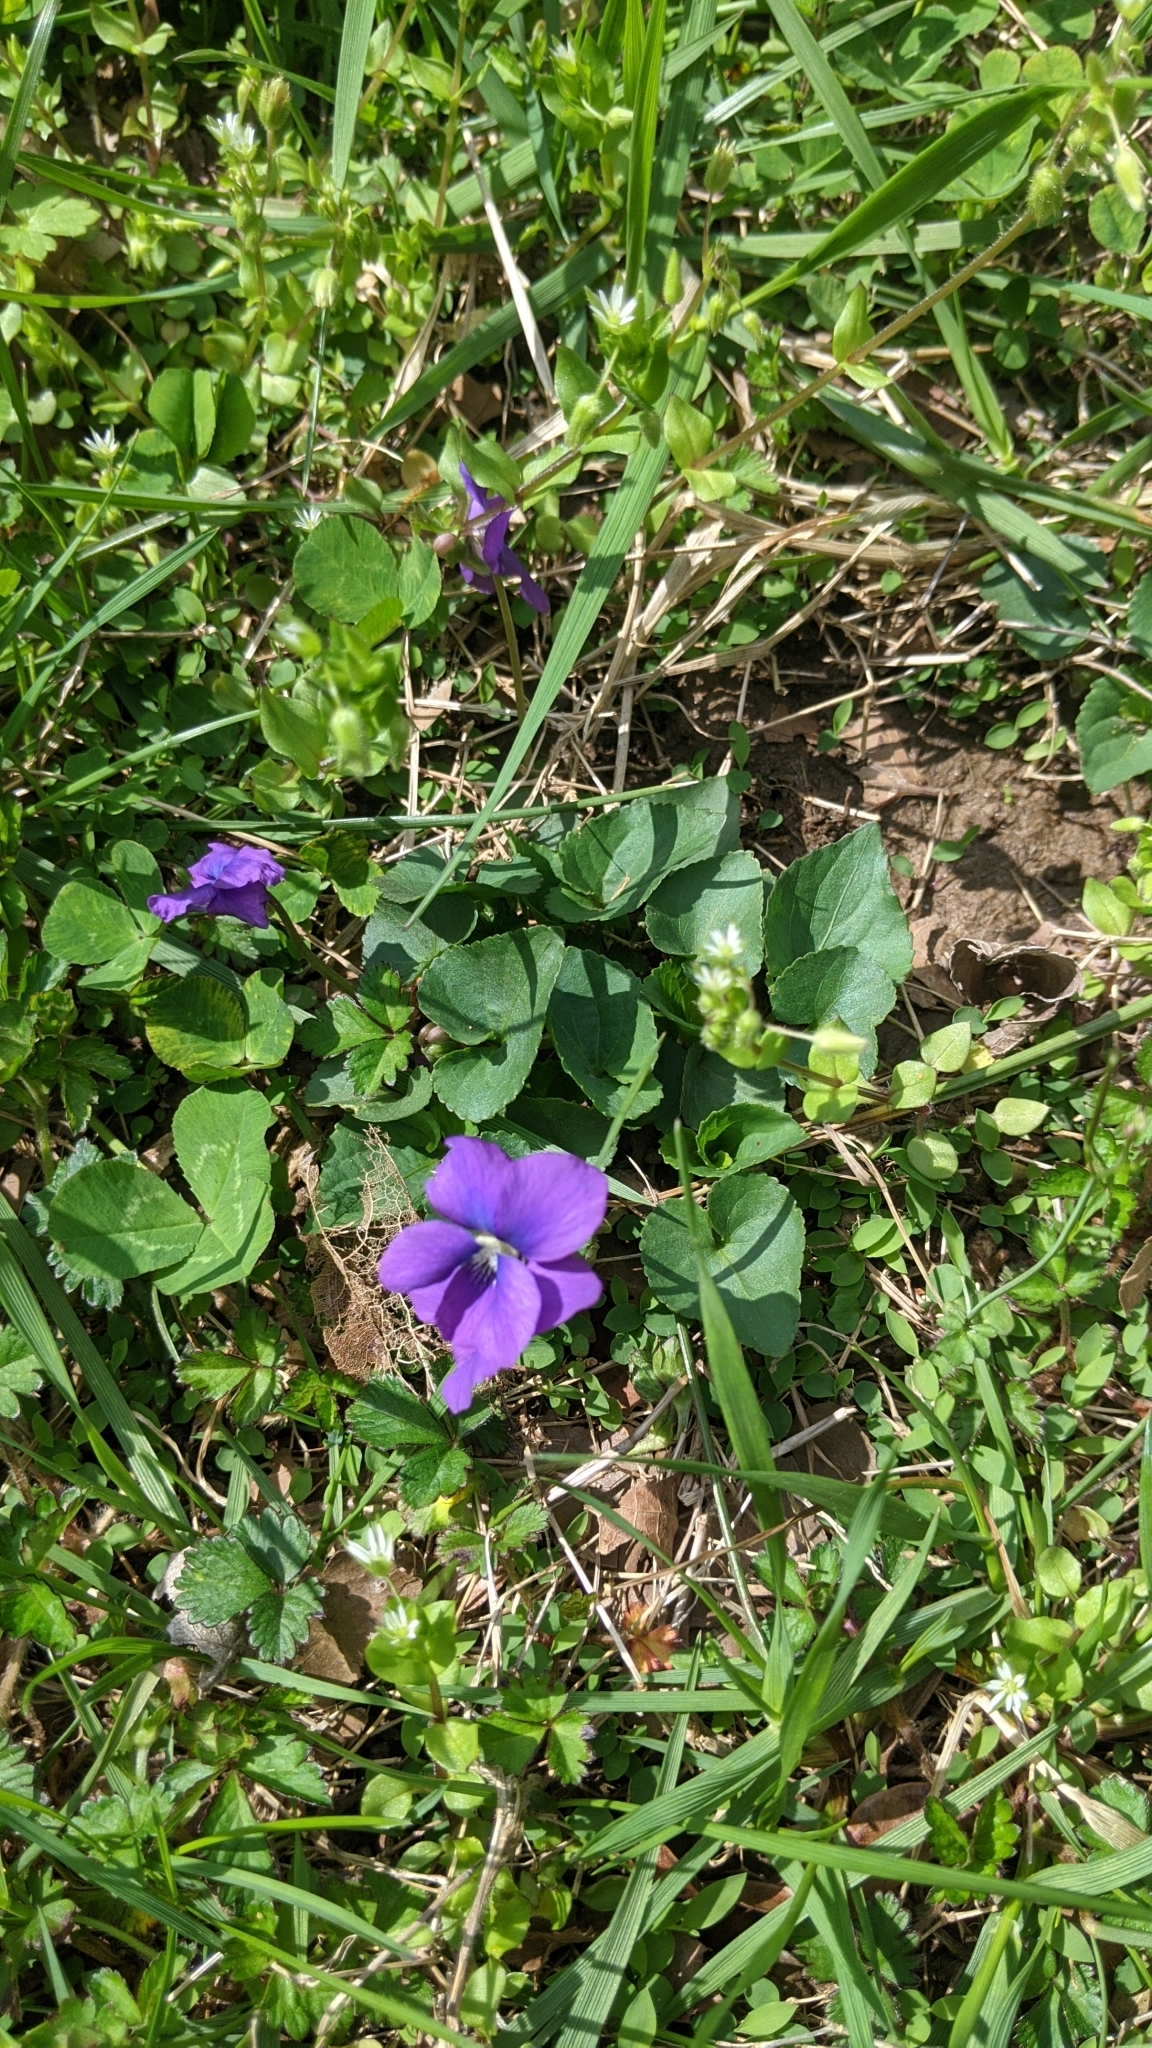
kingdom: Plantae
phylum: Tracheophyta
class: Magnoliopsida
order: Malpighiales
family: Violaceae
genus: Viola
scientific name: Viola sororia
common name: Dooryard violet
